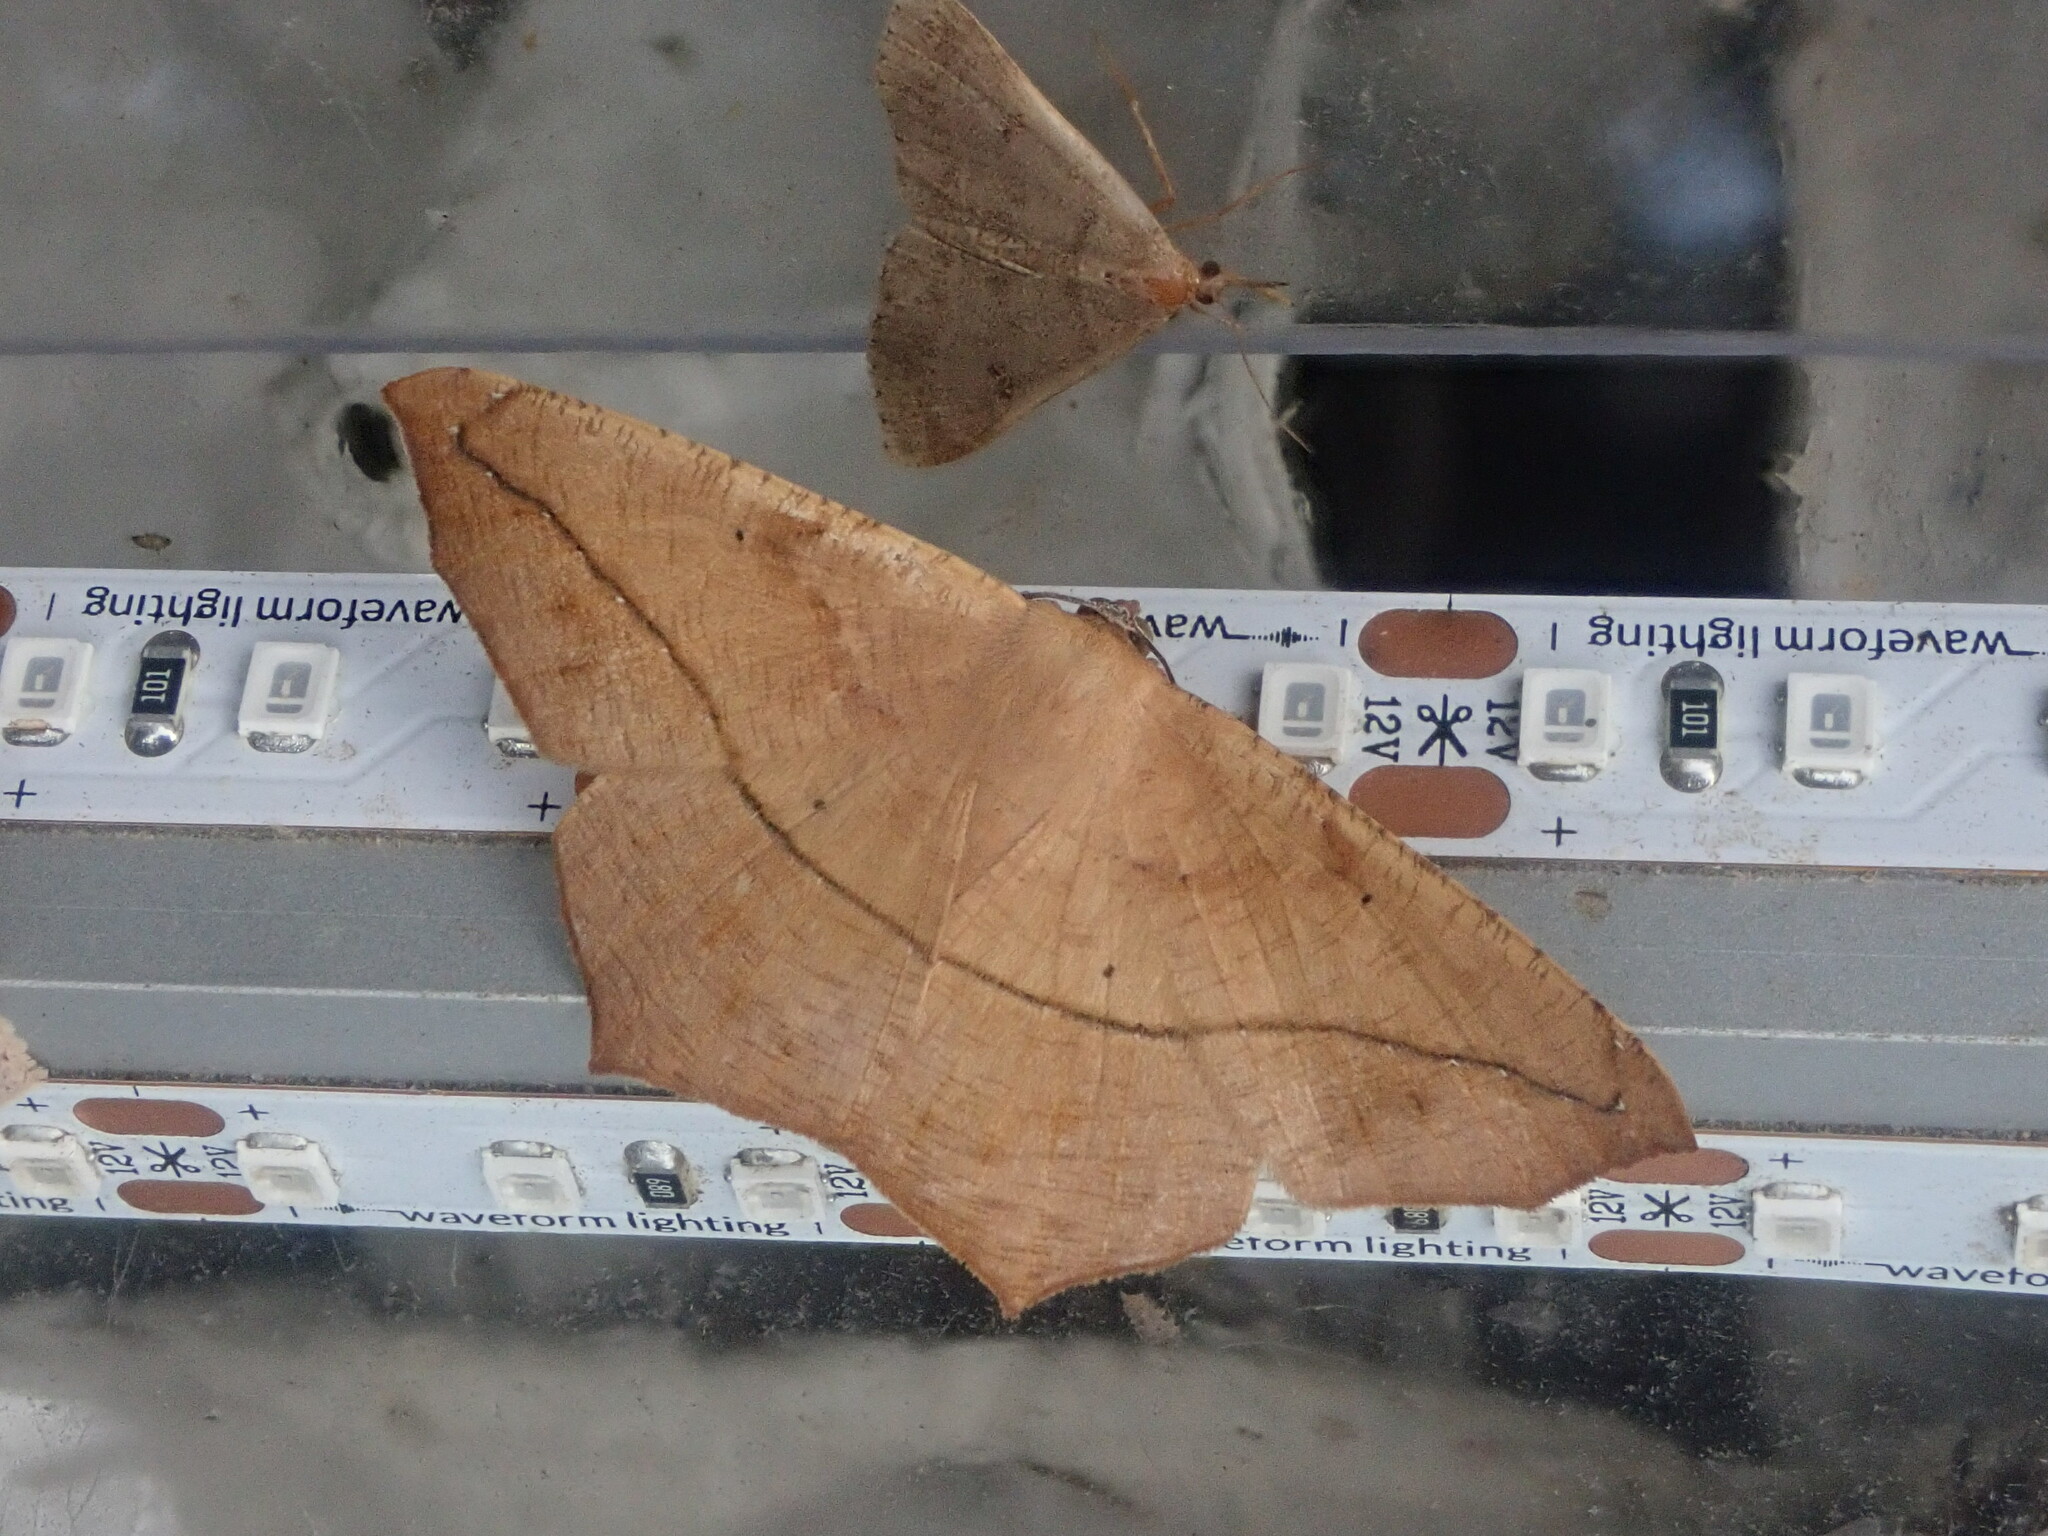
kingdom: Animalia
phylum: Arthropoda
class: Insecta
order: Lepidoptera
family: Geometridae
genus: Prochoerodes
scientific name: Prochoerodes lineola
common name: Large maple spanworm
